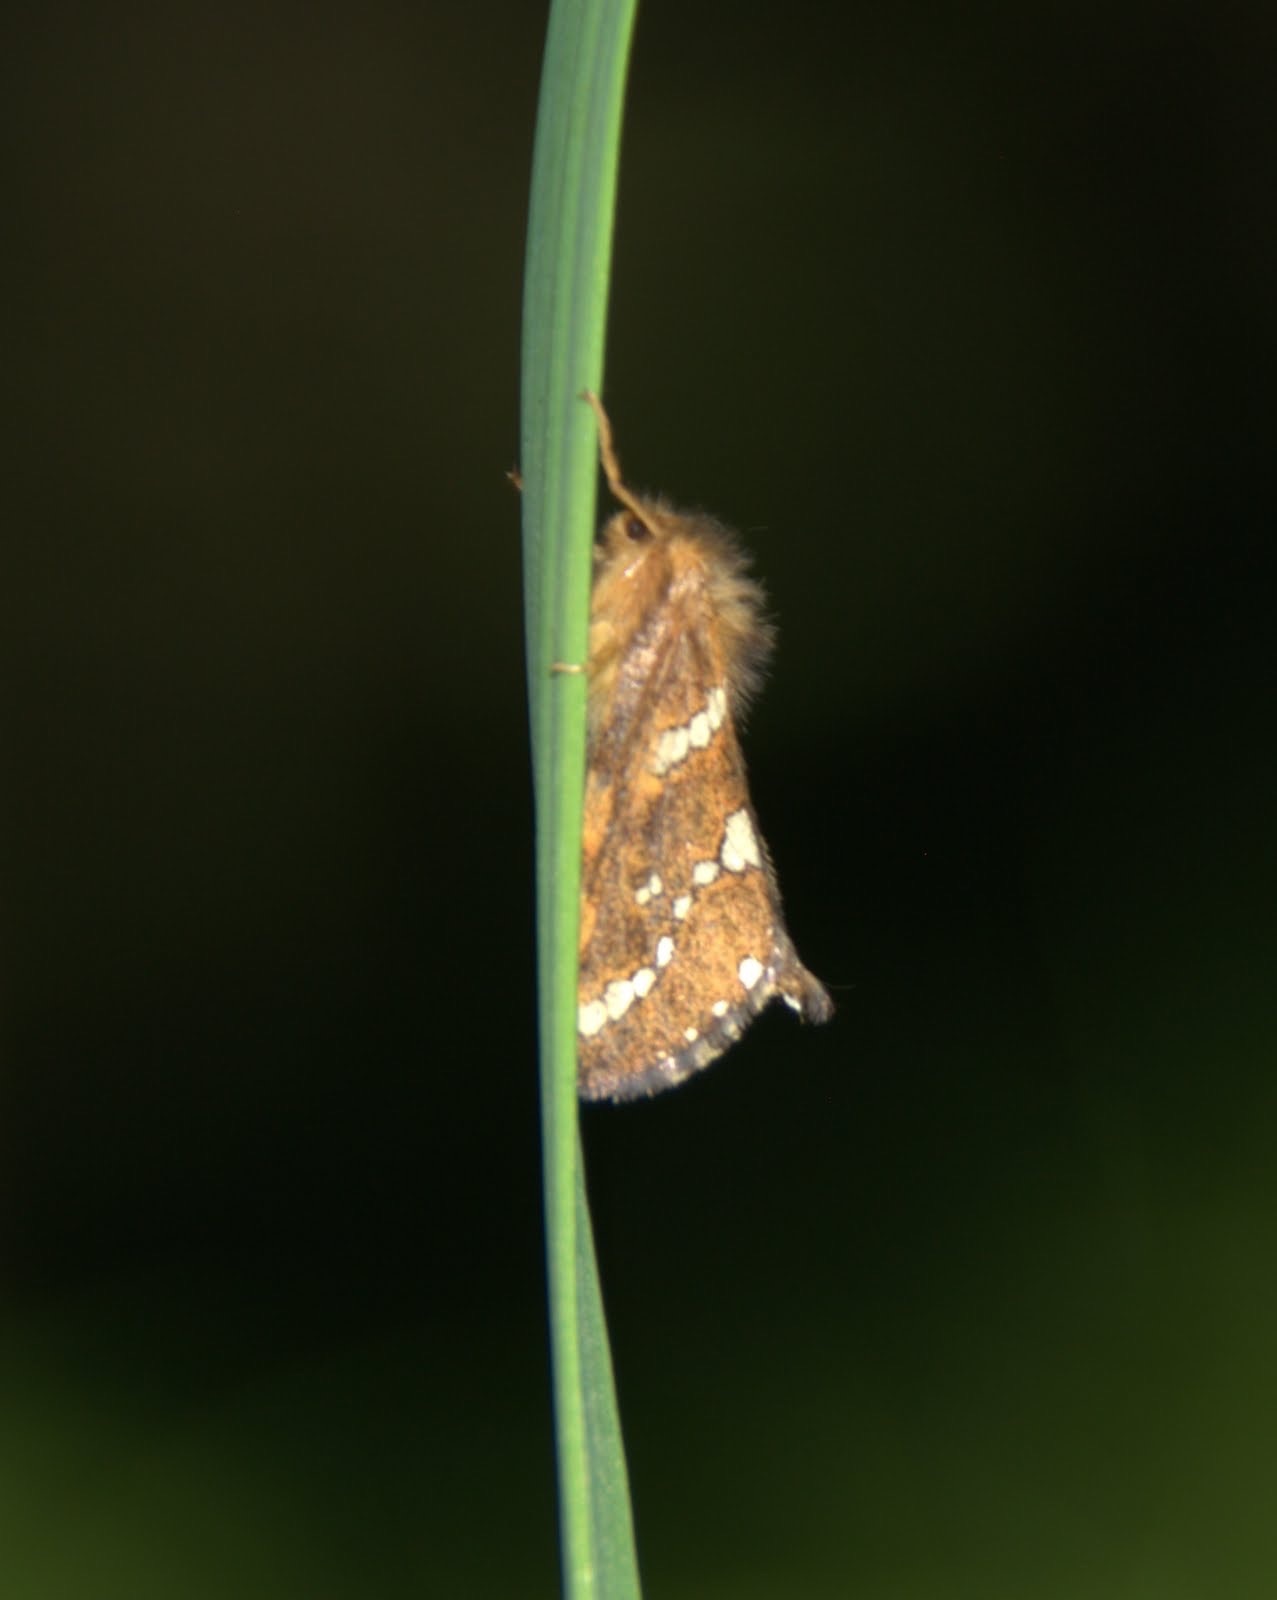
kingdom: Animalia
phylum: Arthropoda
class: Insecta
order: Lepidoptera
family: Hepialidae
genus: Phymatopus
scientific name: Phymatopus hecta
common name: Gold swift
